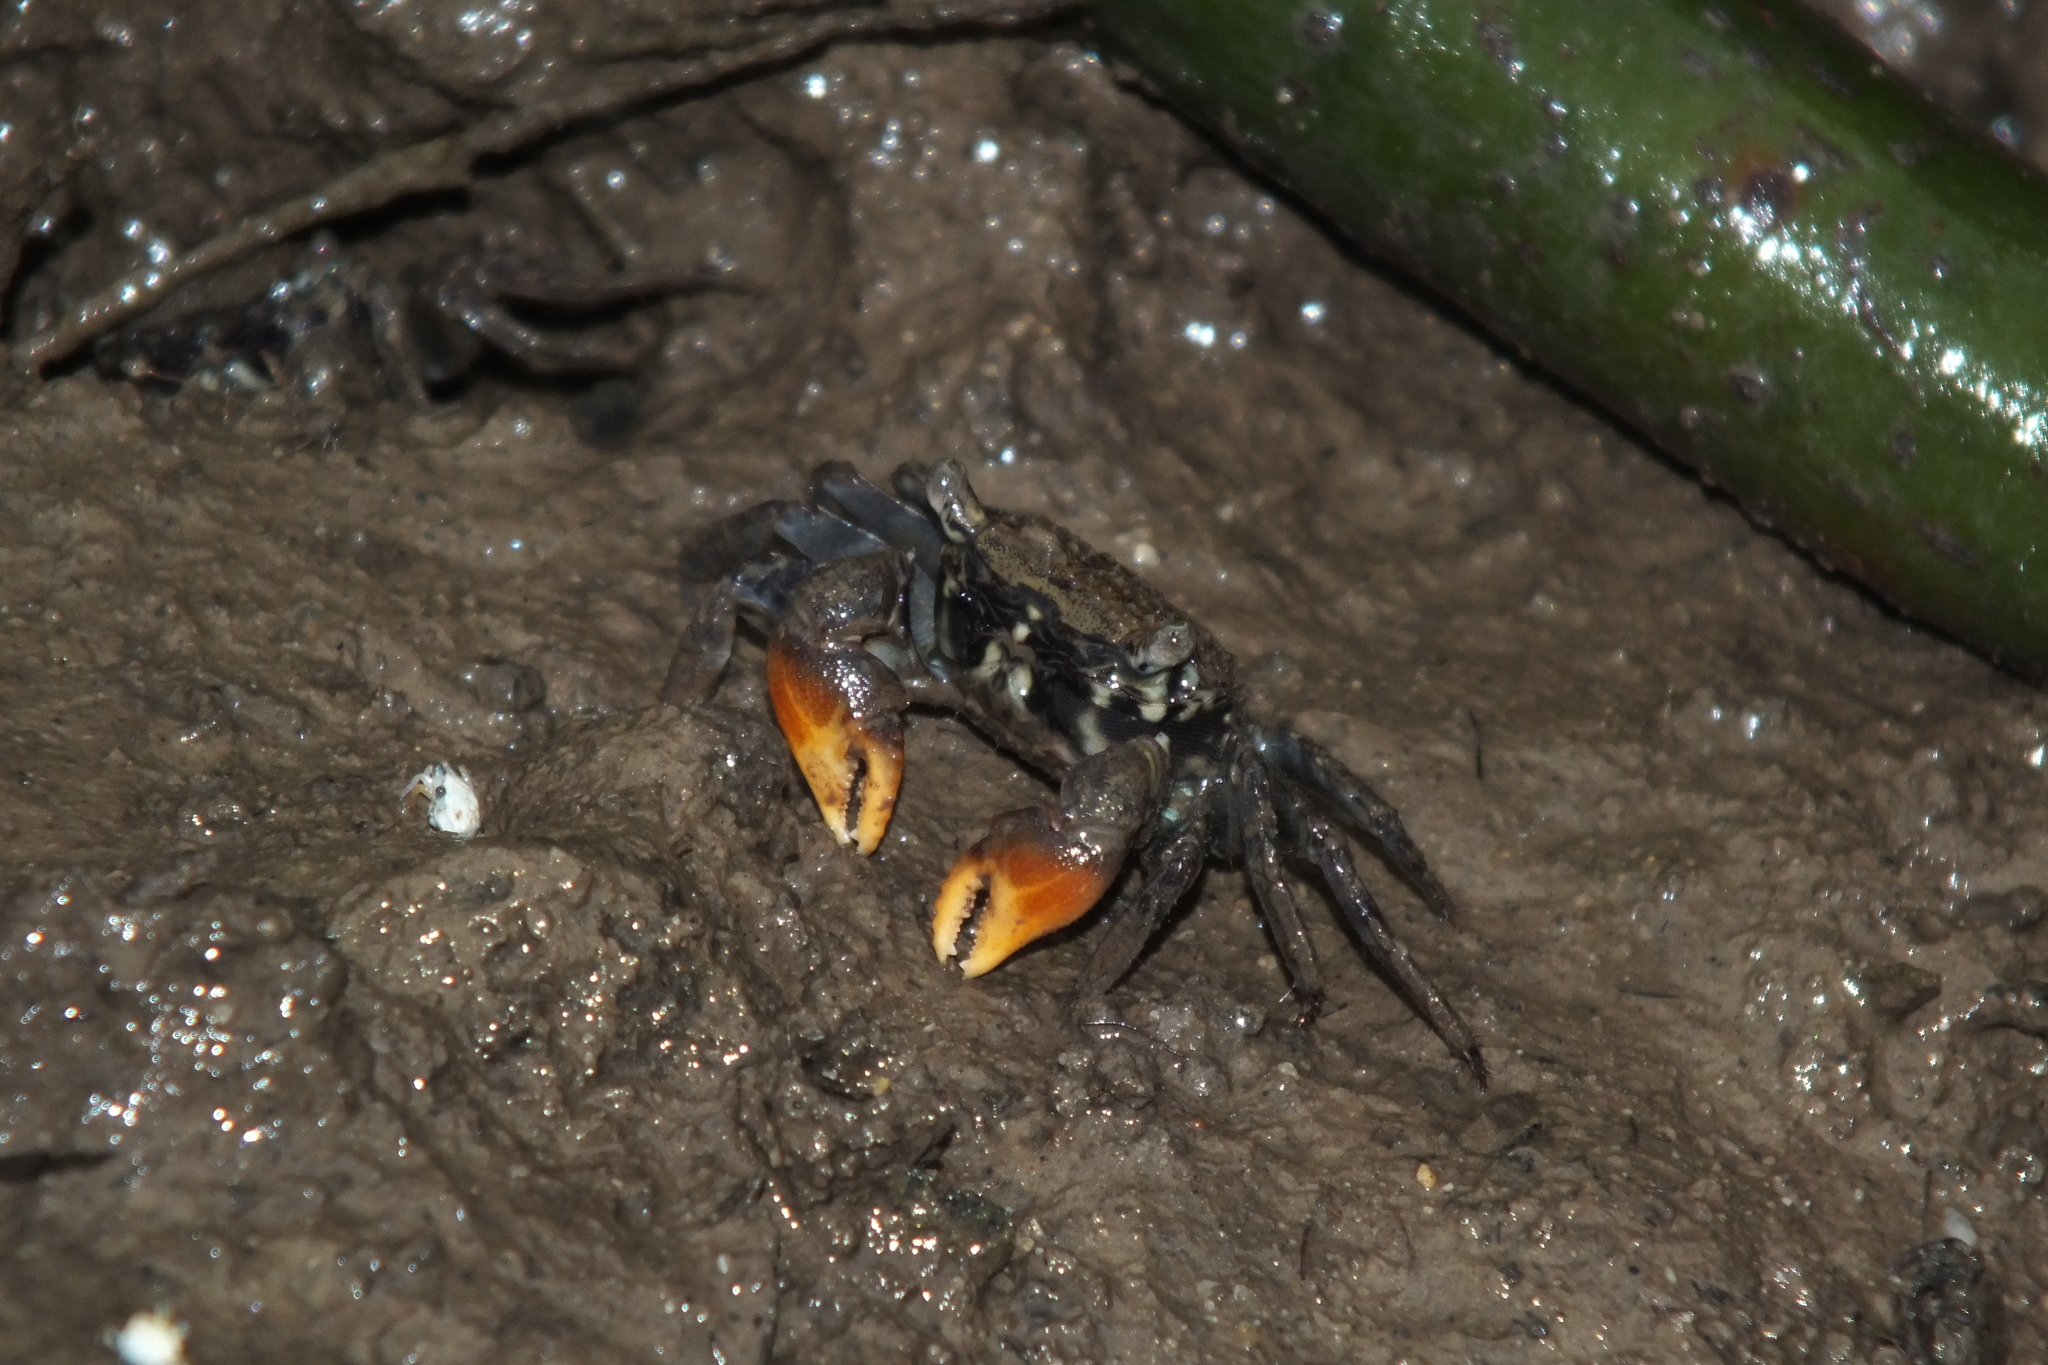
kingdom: Animalia
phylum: Arthropoda
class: Malacostraca
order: Decapoda
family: Sesarmidae
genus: Parasesarma
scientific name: Parasesarma longicristatum
